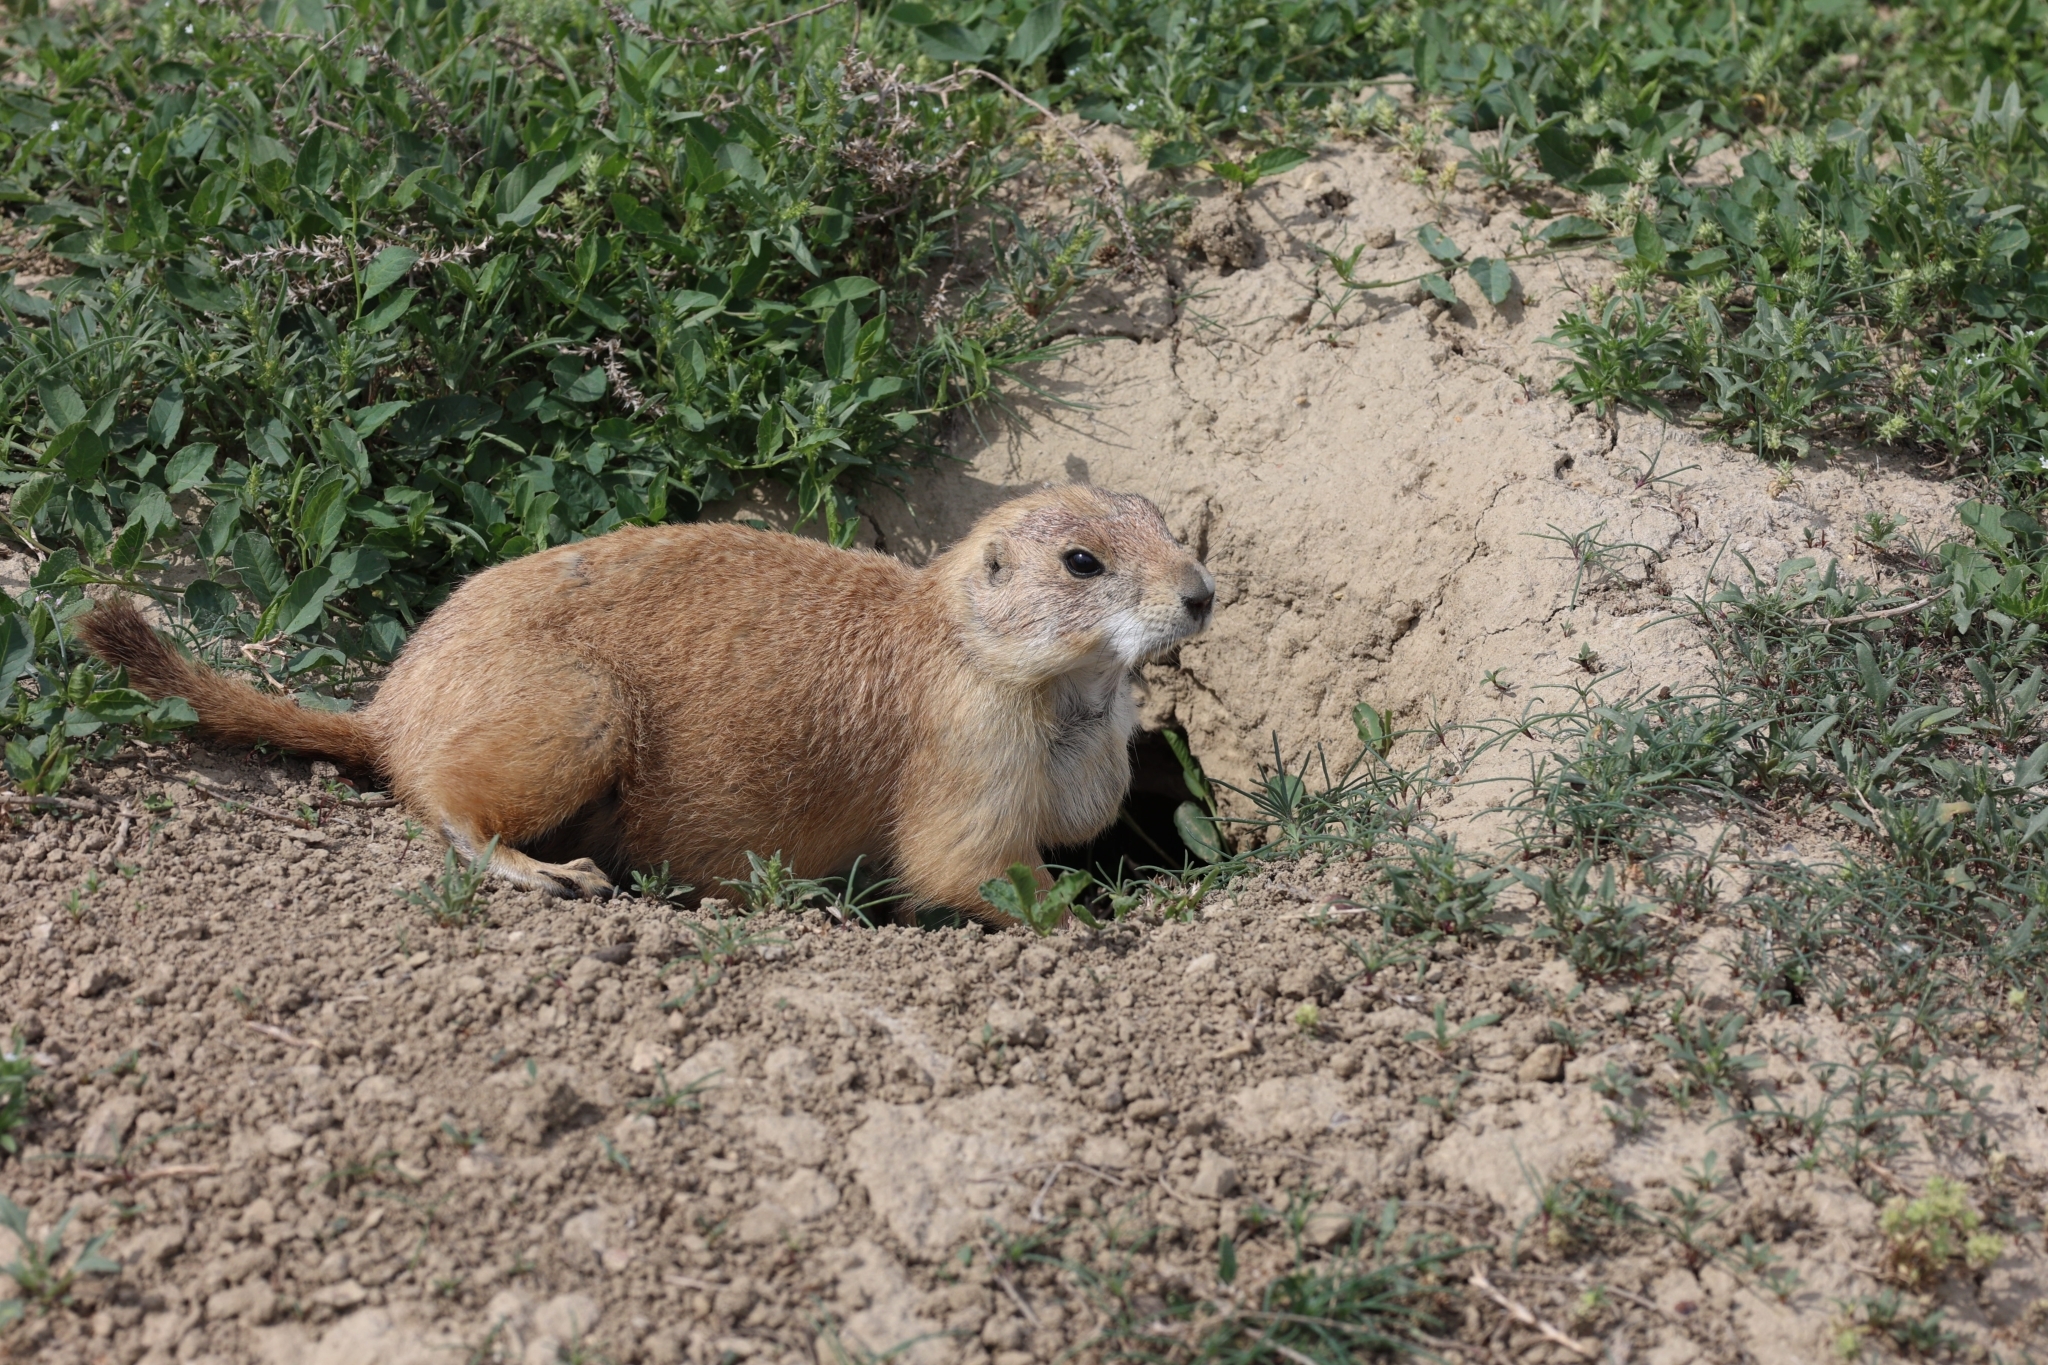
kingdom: Animalia
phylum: Chordata
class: Mammalia
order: Rodentia
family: Sciuridae
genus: Cynomys
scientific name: Cynomys ludovicianus
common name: Black-tailed prairie dog
